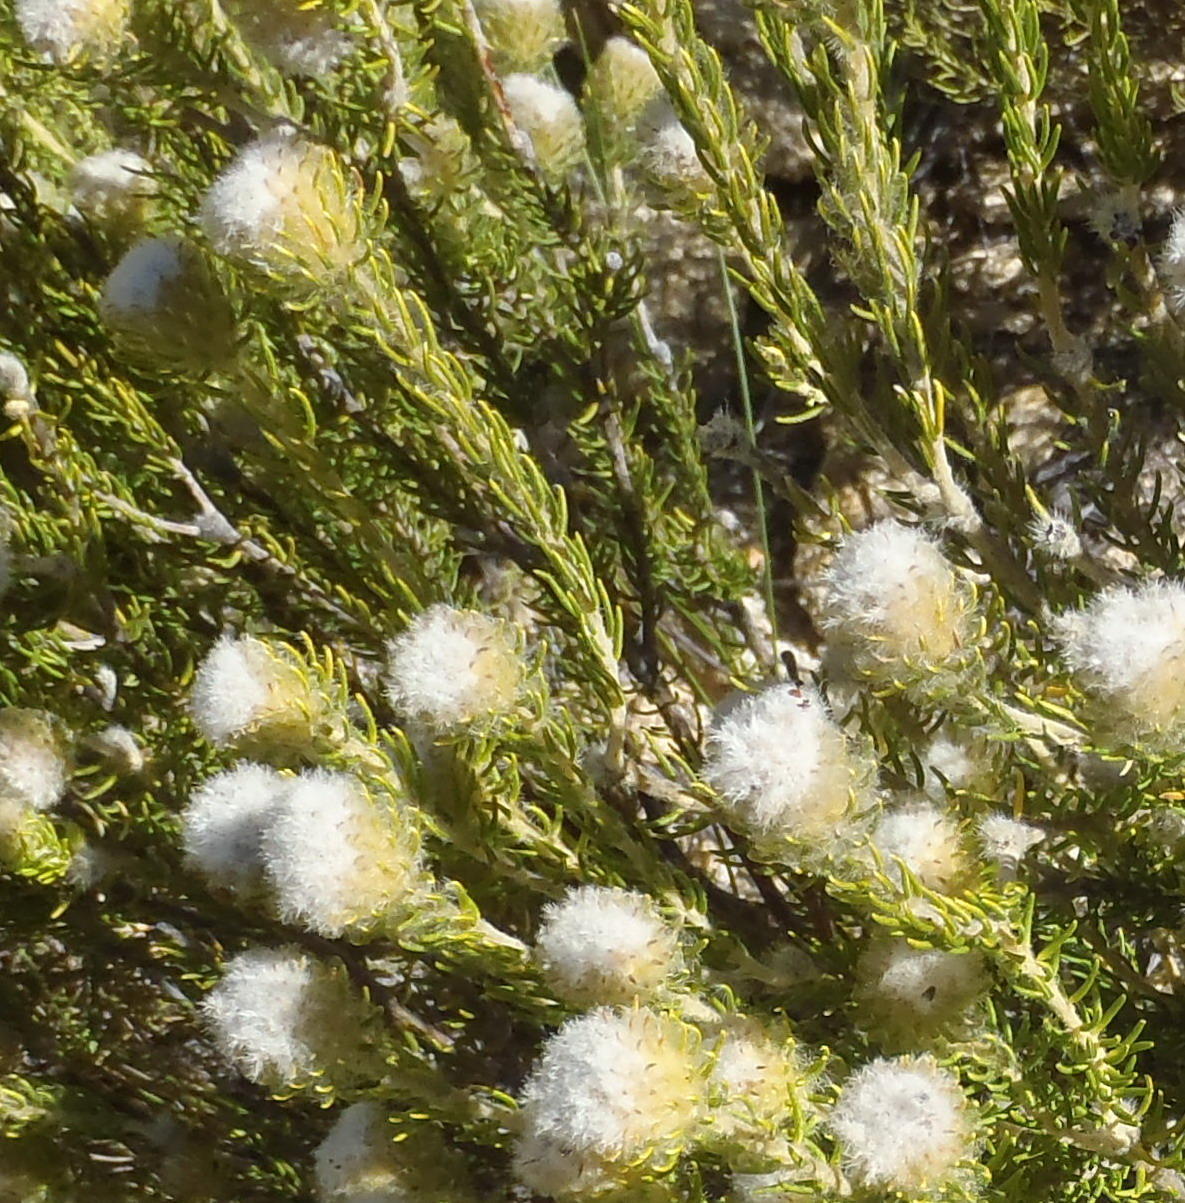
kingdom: Plantae
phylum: Tracheophyta
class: Magnoliopsida
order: Rosales
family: Rhamnaceae
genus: Phylica
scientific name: Phylica nigromontana
